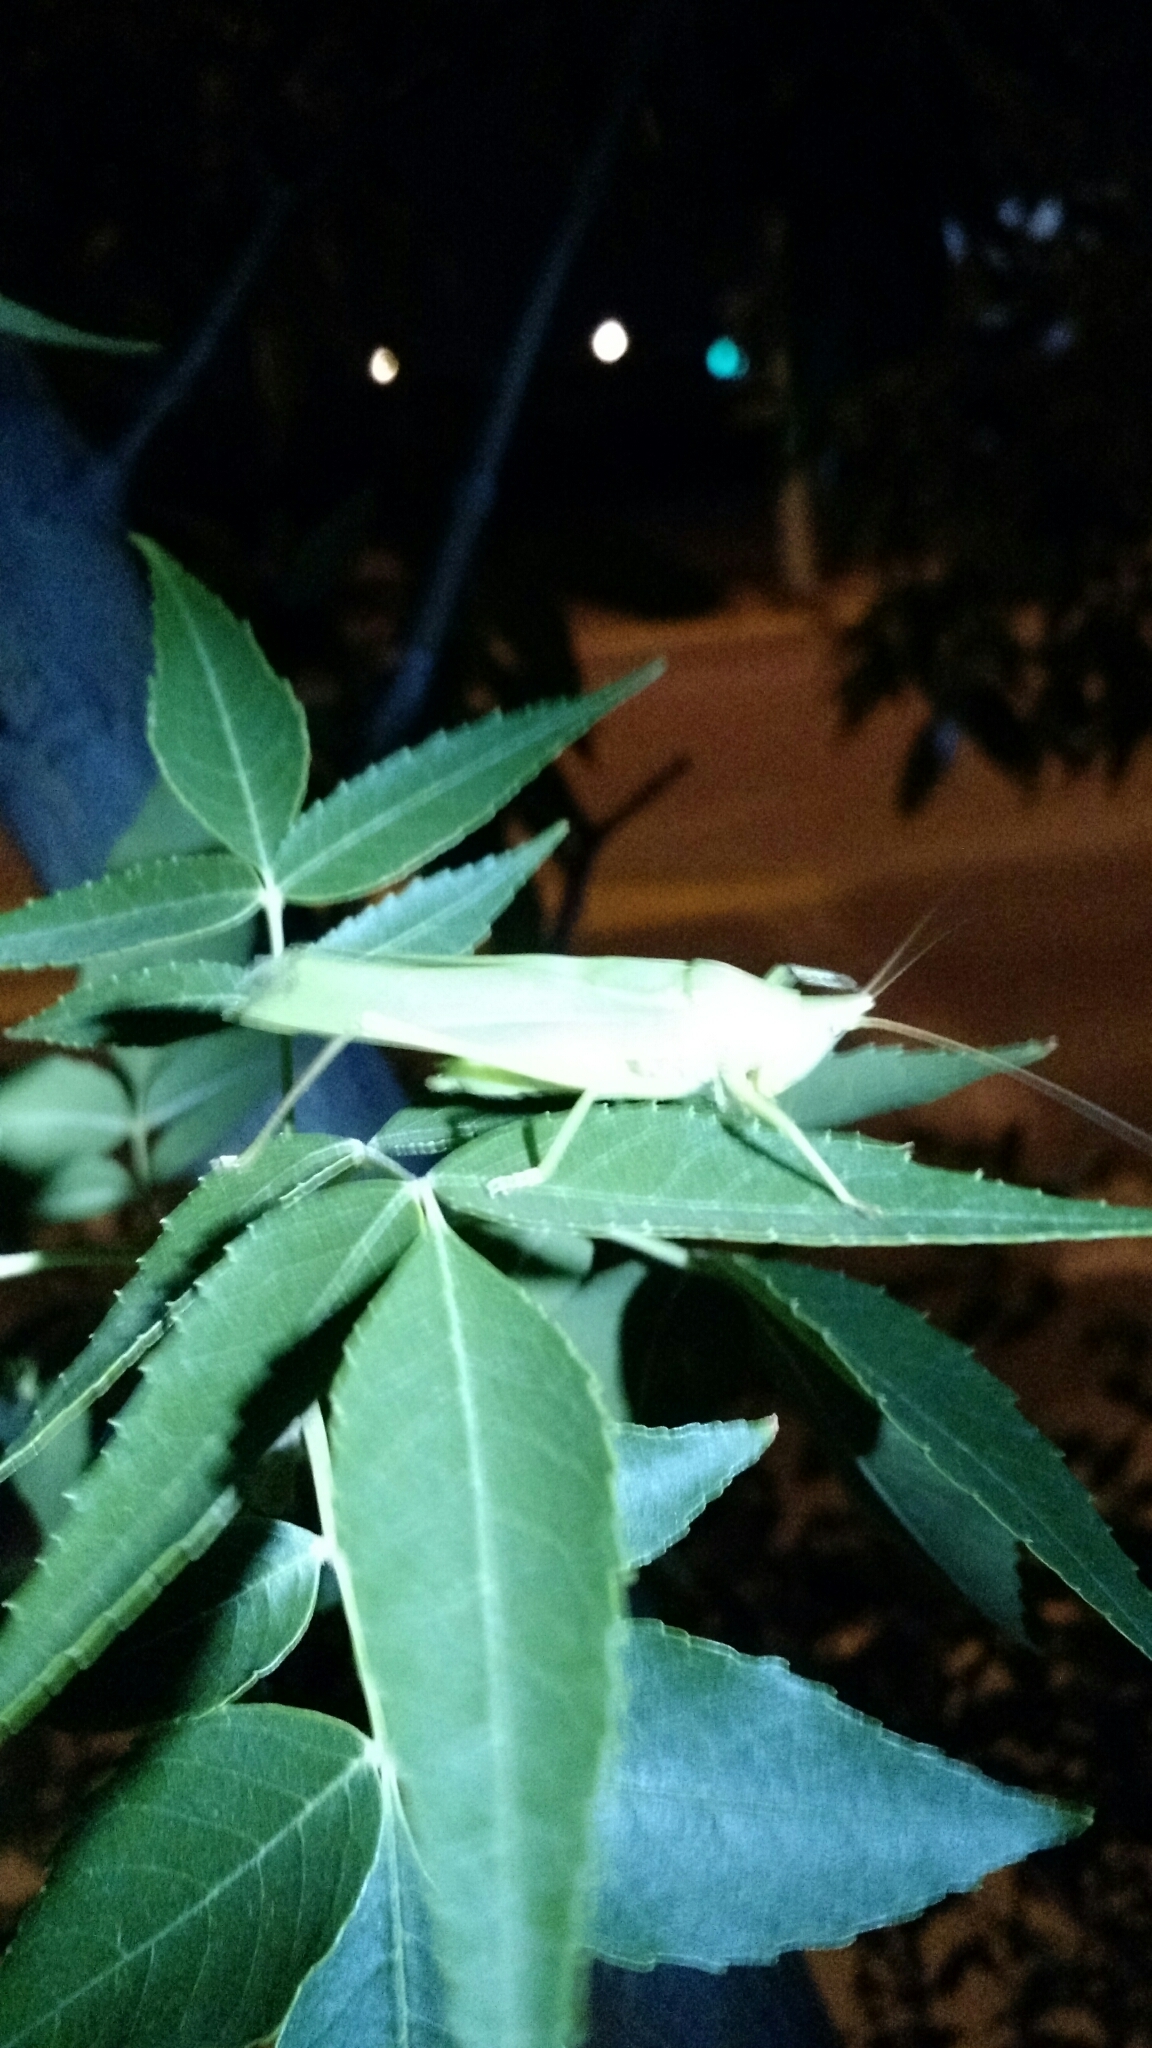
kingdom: Animalia
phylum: Arthropoda
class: Insecta
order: Orthoptera
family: Tettigoniidae
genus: Neoconocephalus
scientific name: Neoconocephalus ensiger
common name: Swordbearer
